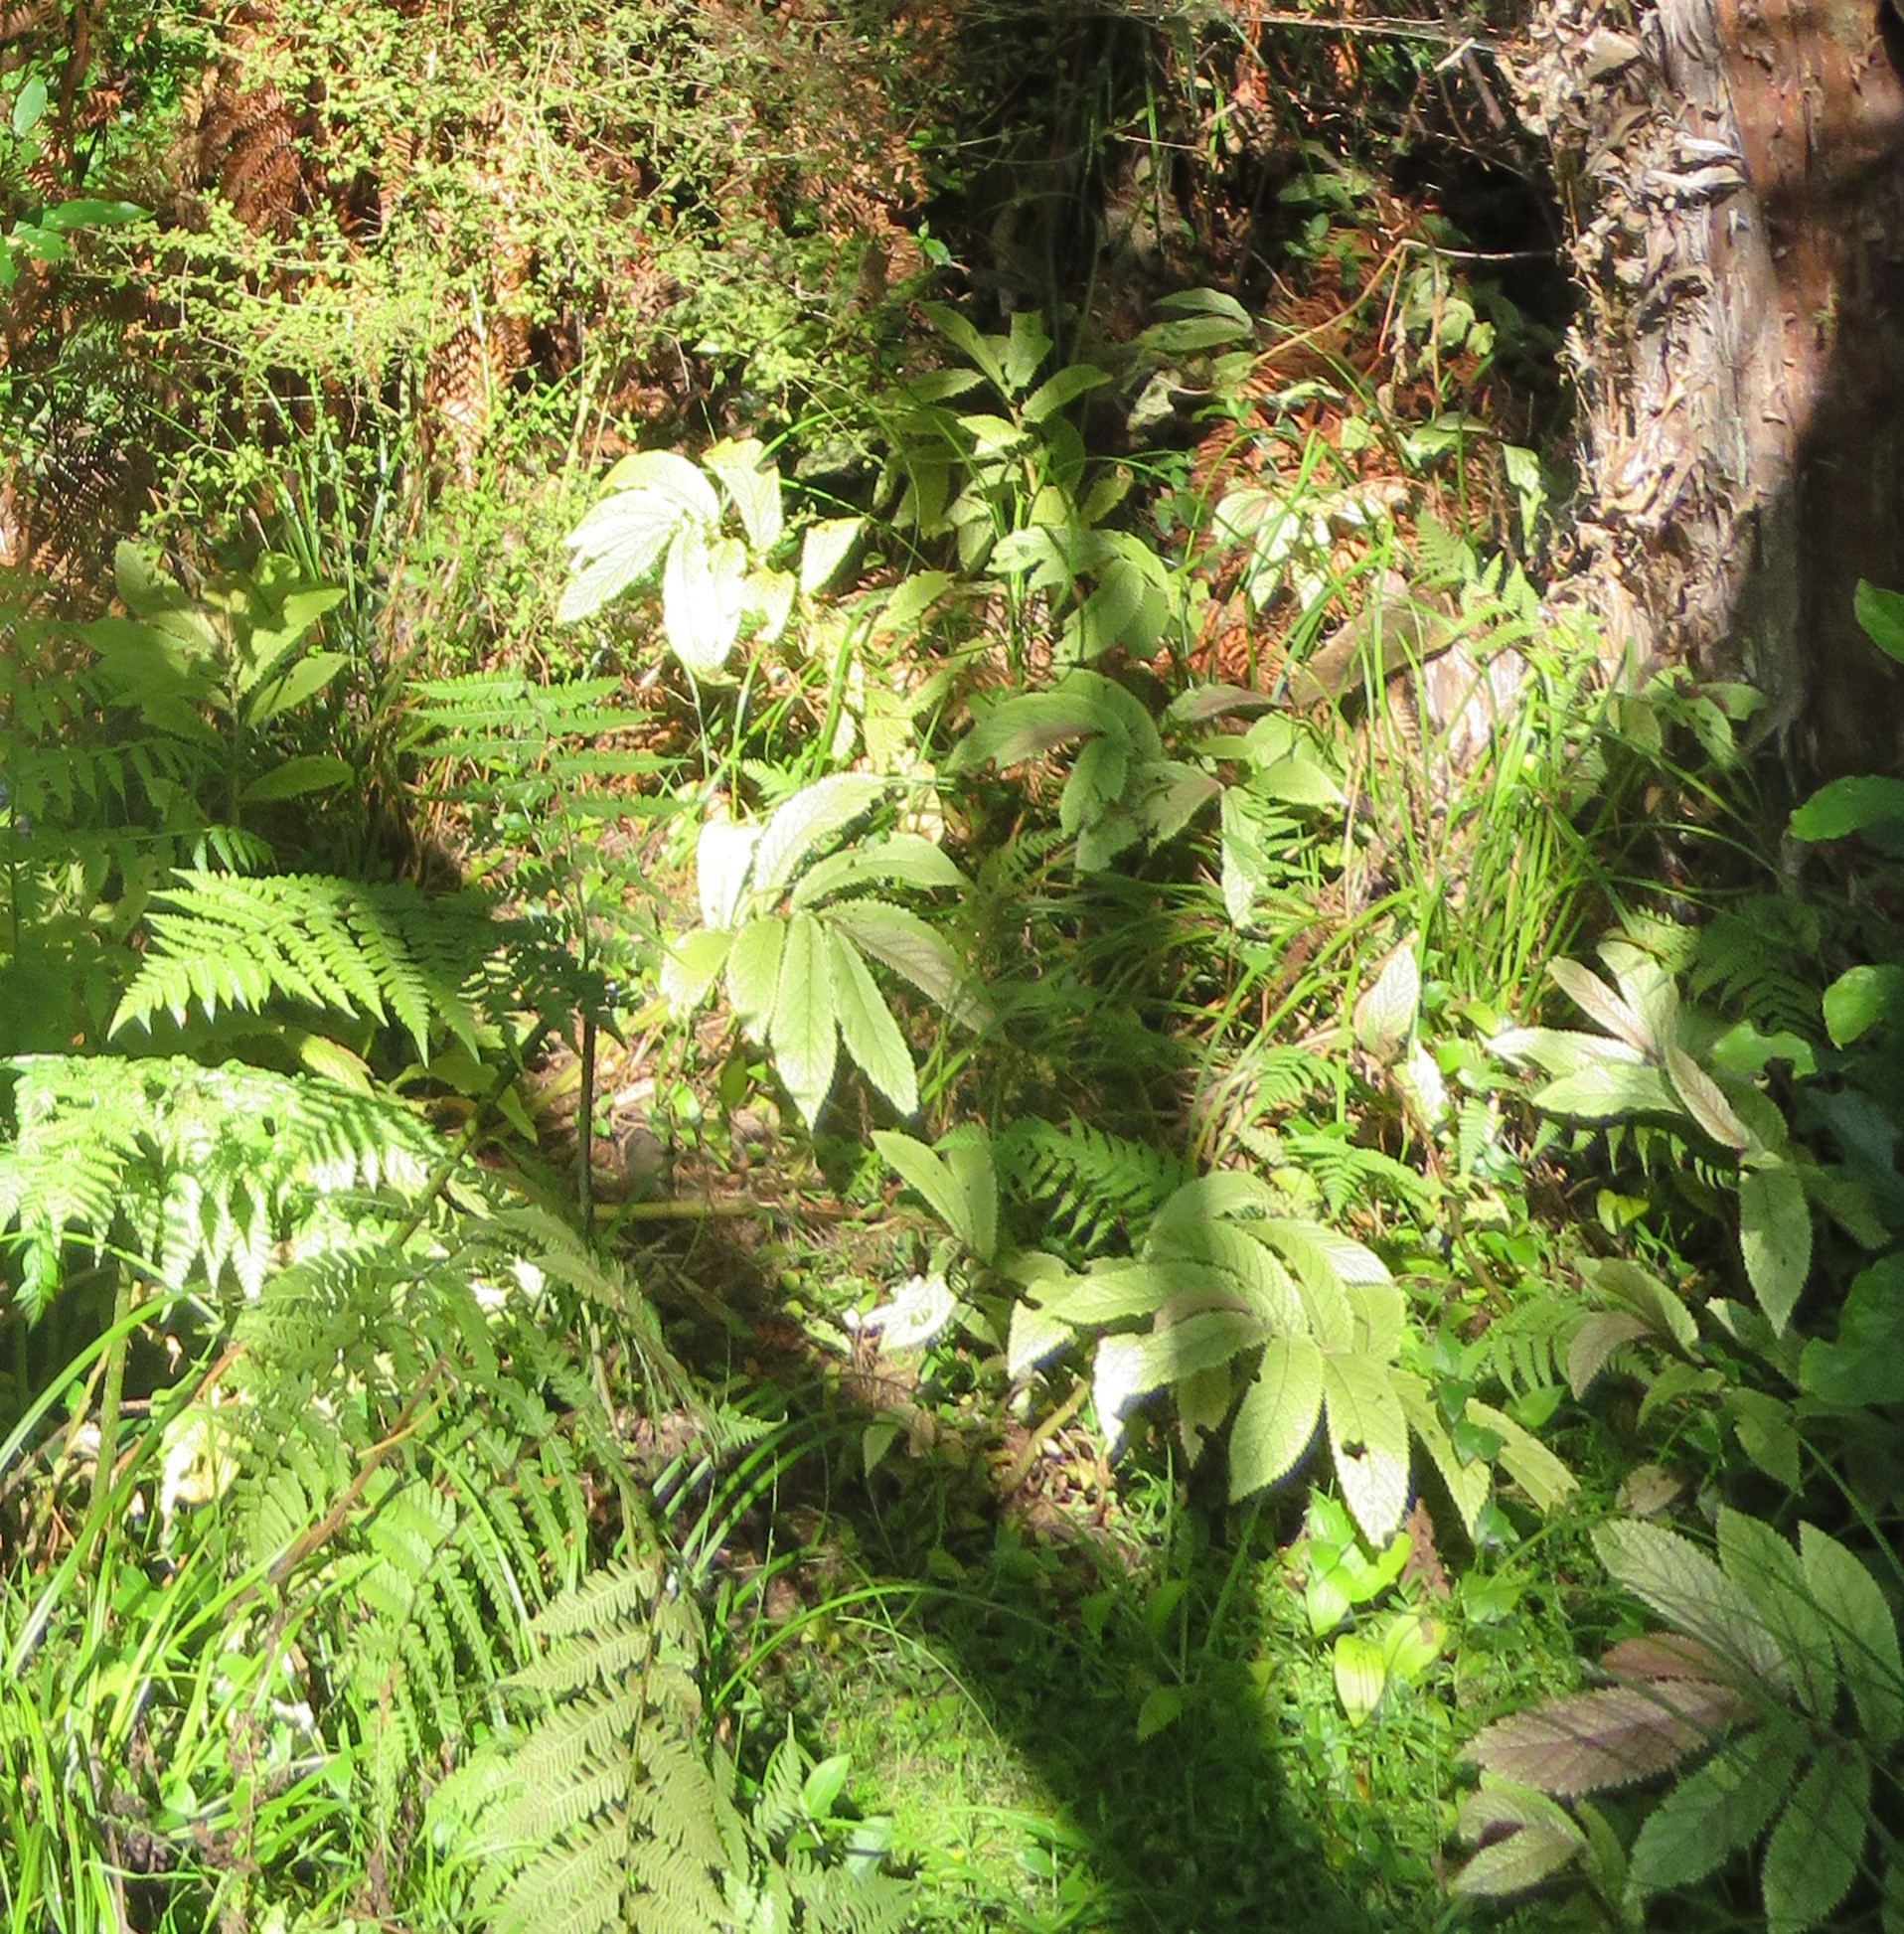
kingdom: Plantae
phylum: Tracheophyta
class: Magnoliopsida
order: Rosales
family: Urticaceae
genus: Elatostema
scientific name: Elatostema rugosum
